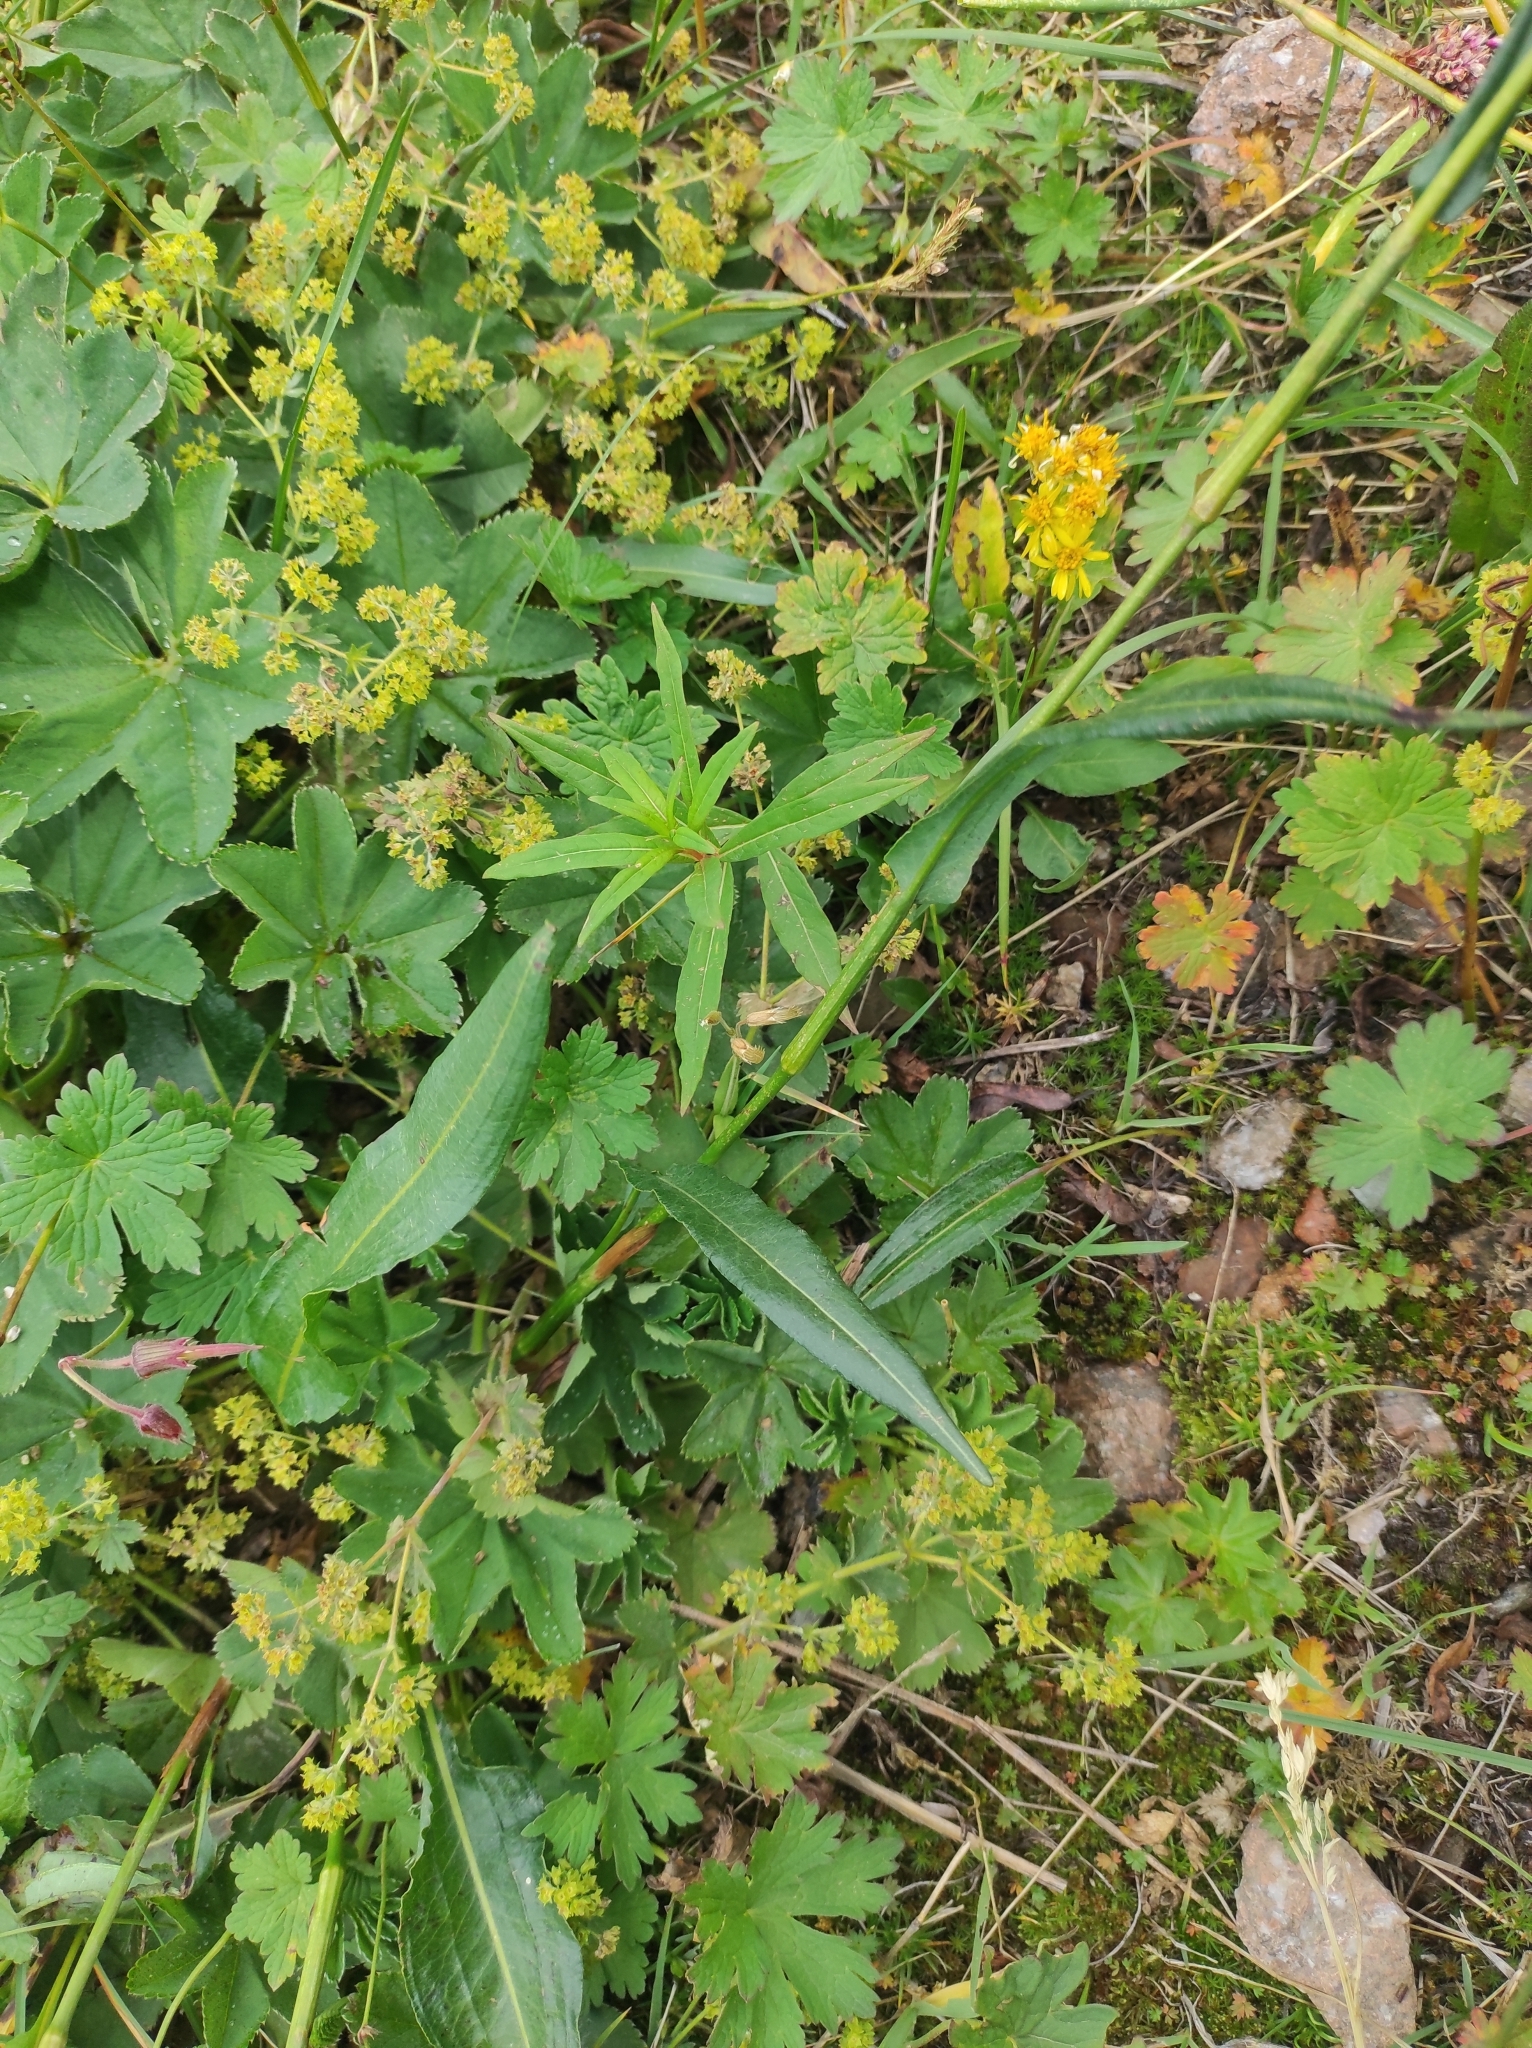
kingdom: Plantae
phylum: Tracheophyta
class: Magnoliopsida
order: Caryophyllales
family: Polygonaceae
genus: Bistorta
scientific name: Bistorta elliptica
